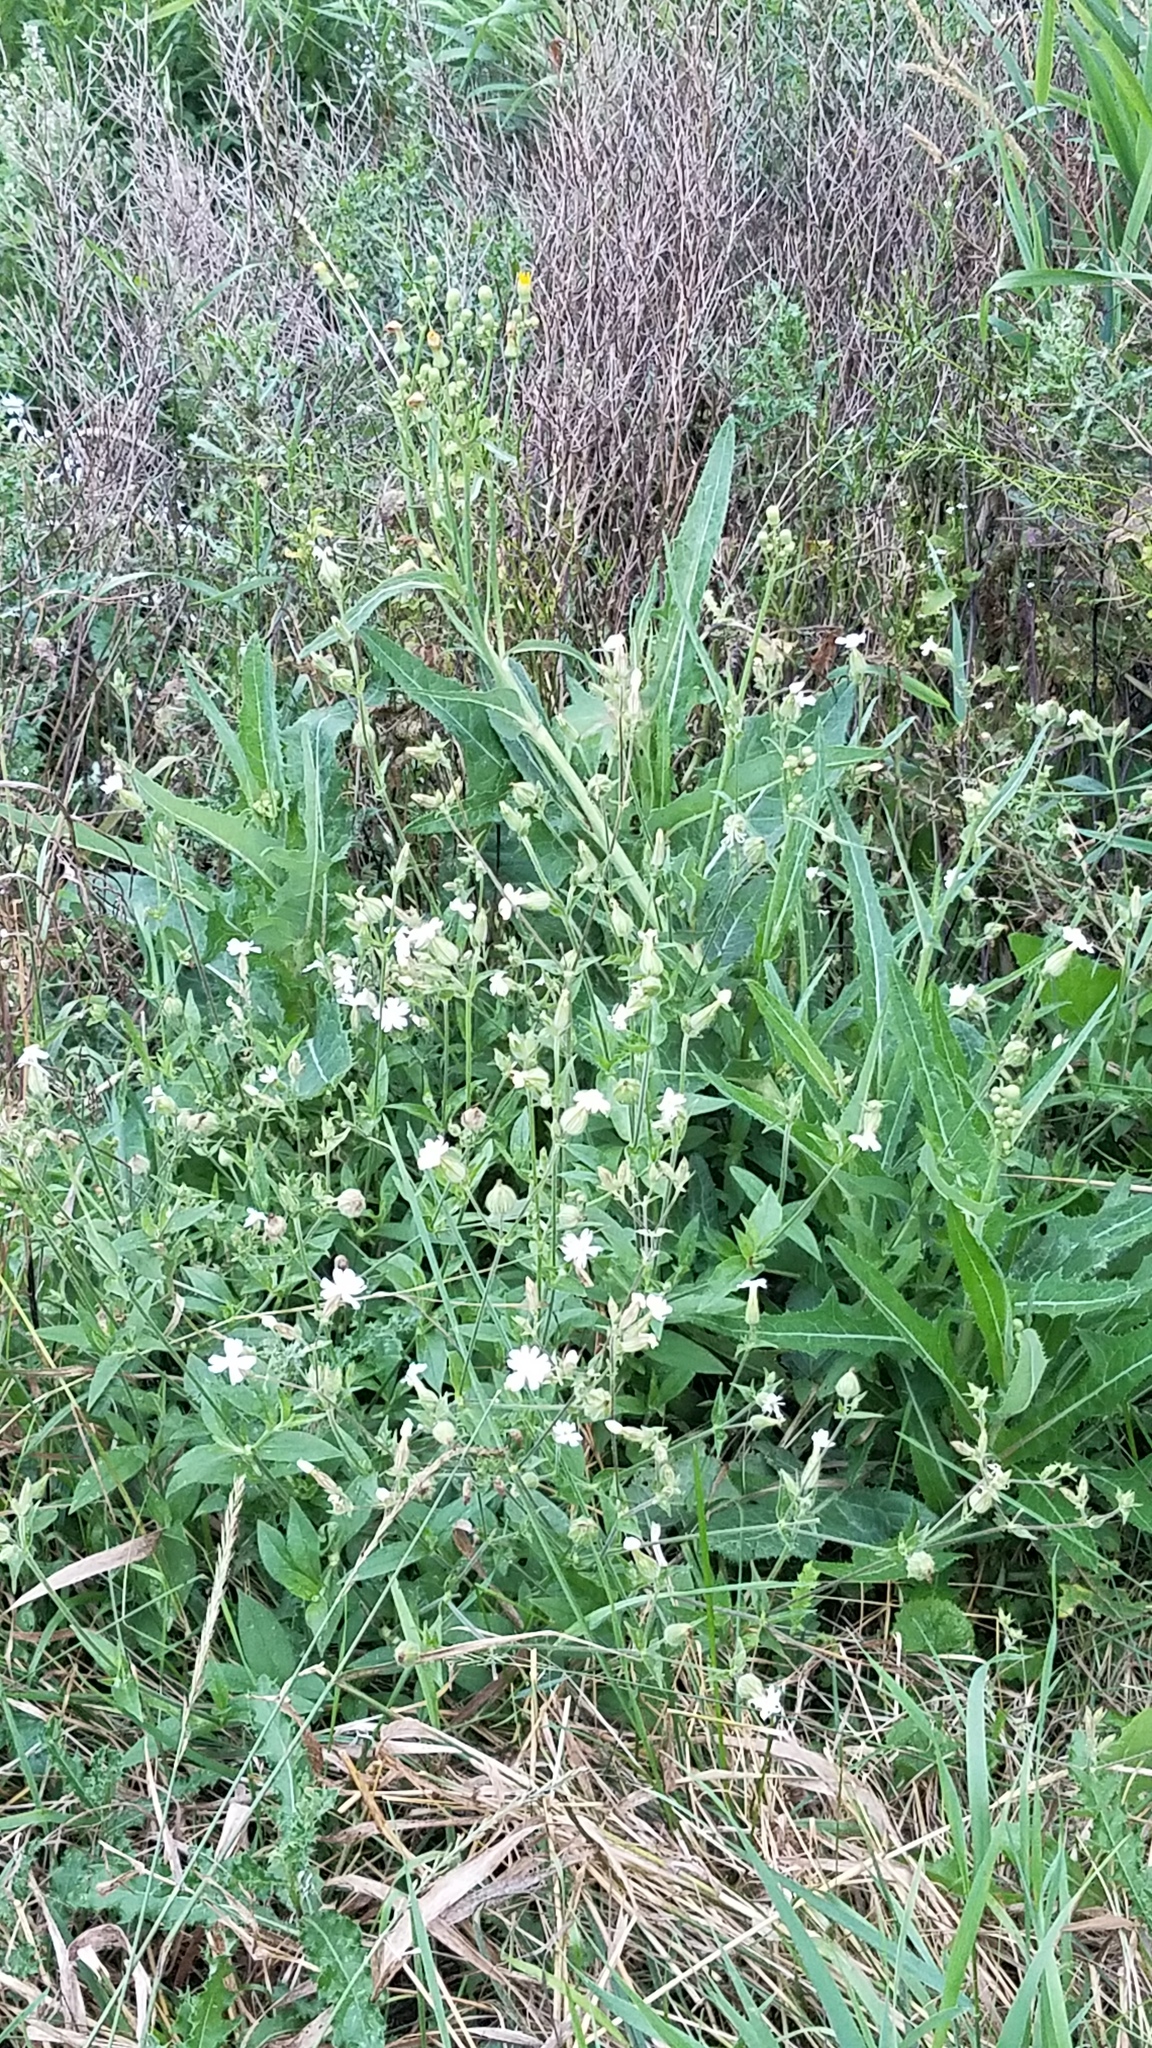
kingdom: Plantae
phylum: Tracheophyta
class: Magnoliopsida
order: Caryophyllales
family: Caryophyllaceae
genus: Silene
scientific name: Silene latifolia
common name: White campion
